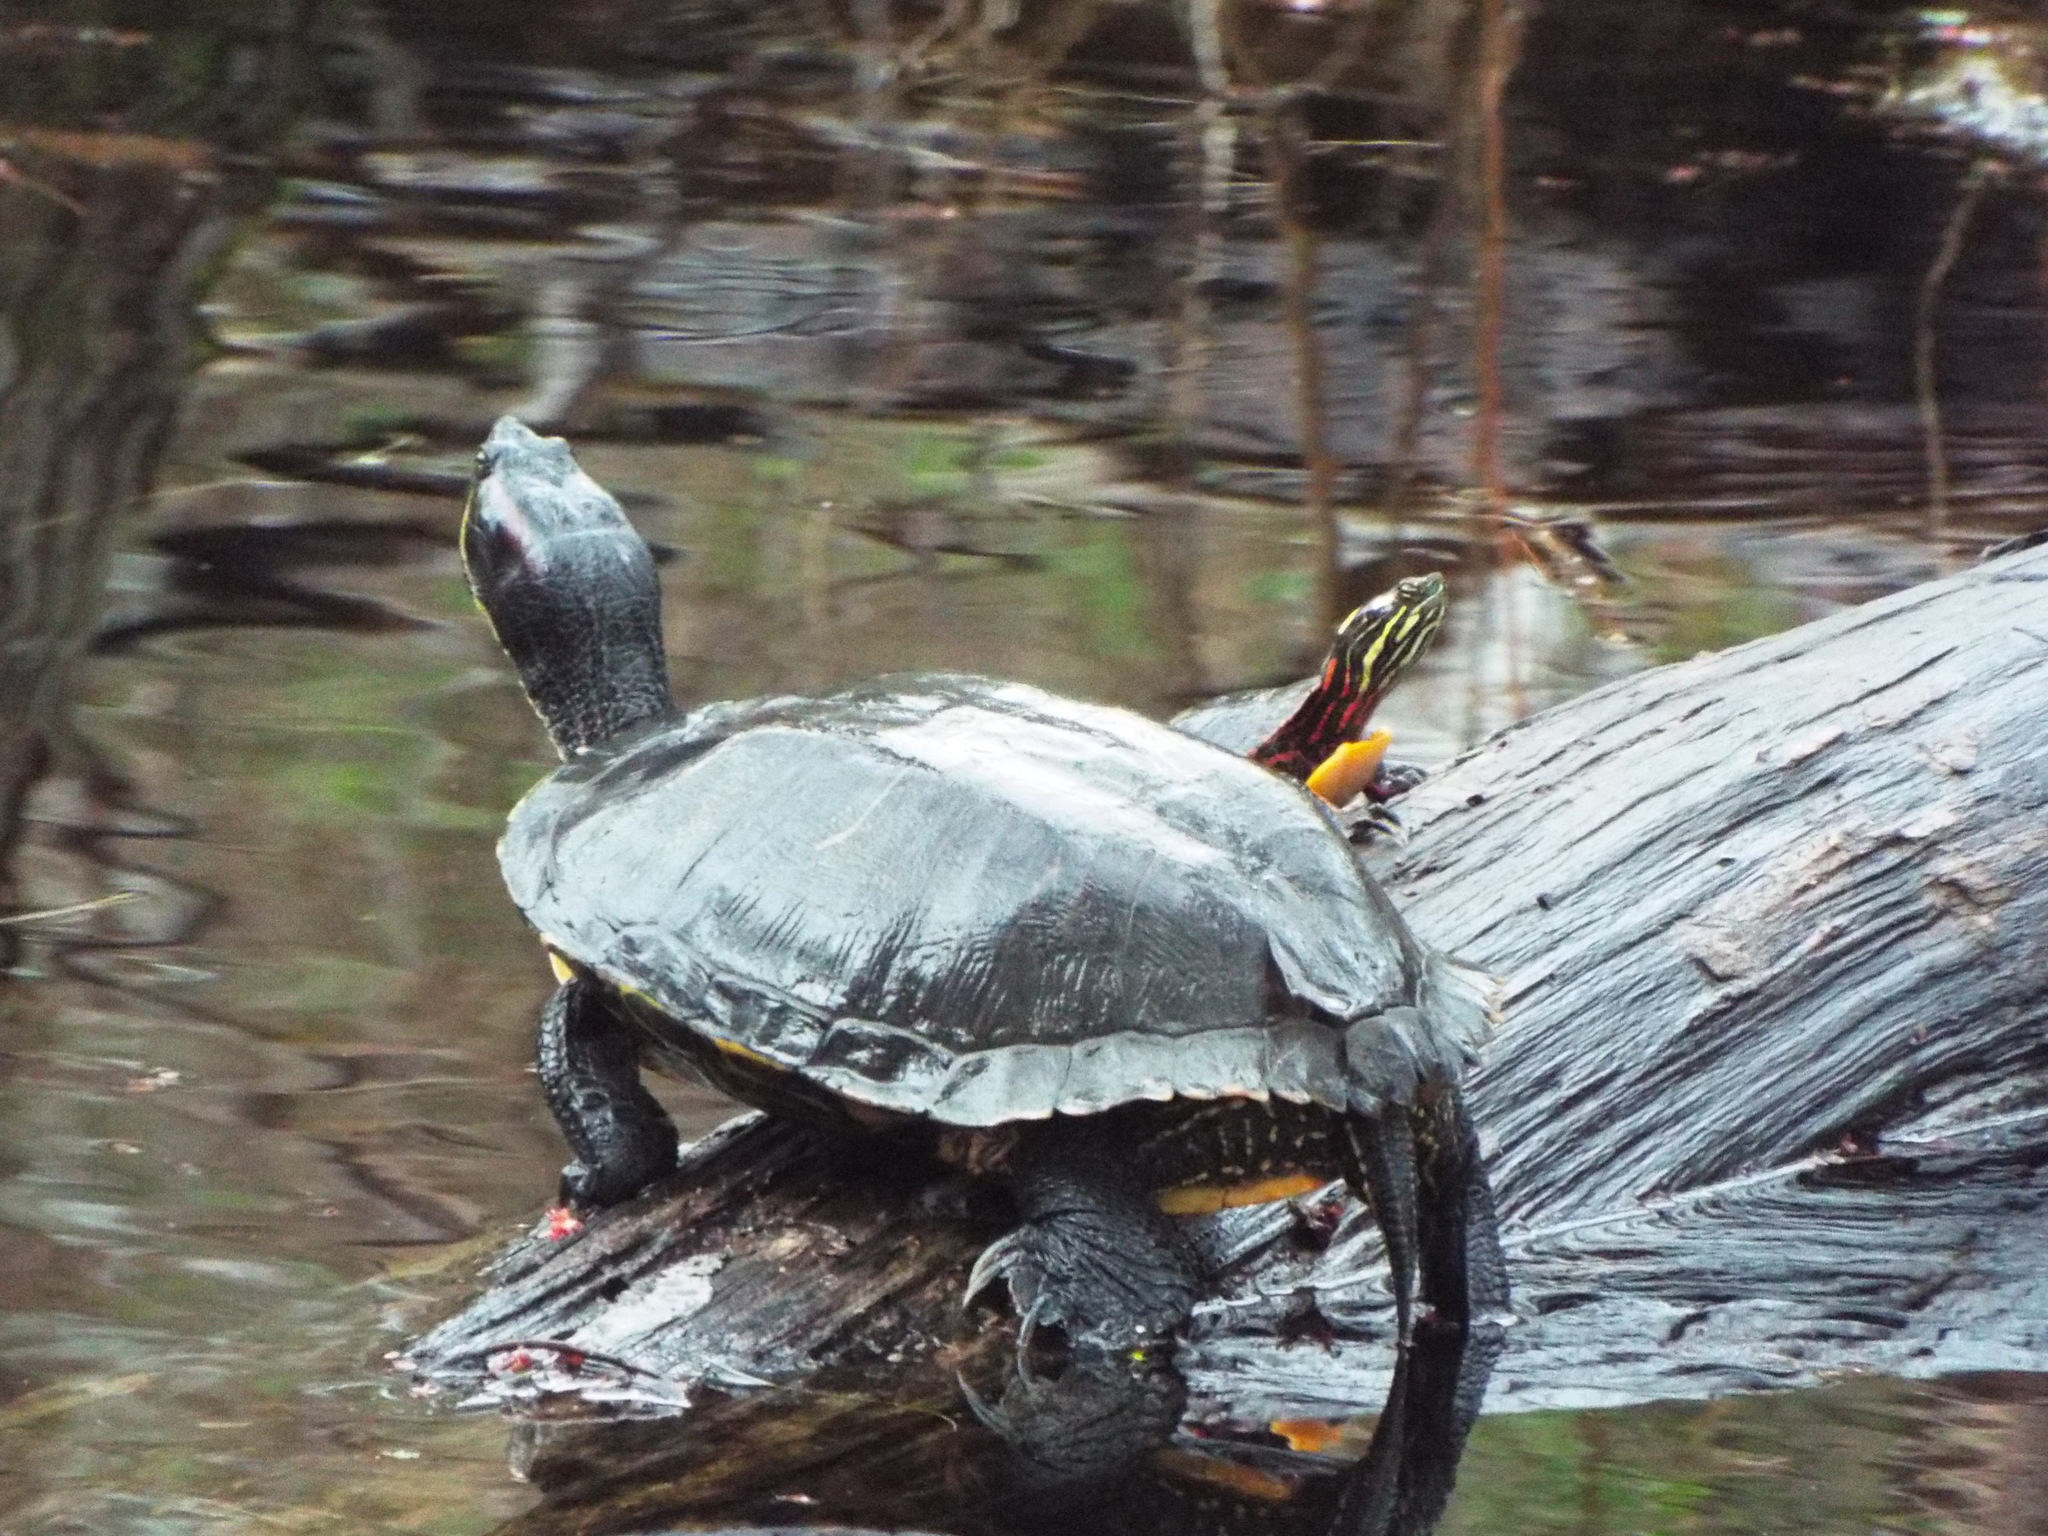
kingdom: Animalia
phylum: Chordata
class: Testudines
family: Emydidae
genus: Trachemys
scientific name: Trachemys scripta
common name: Slider
